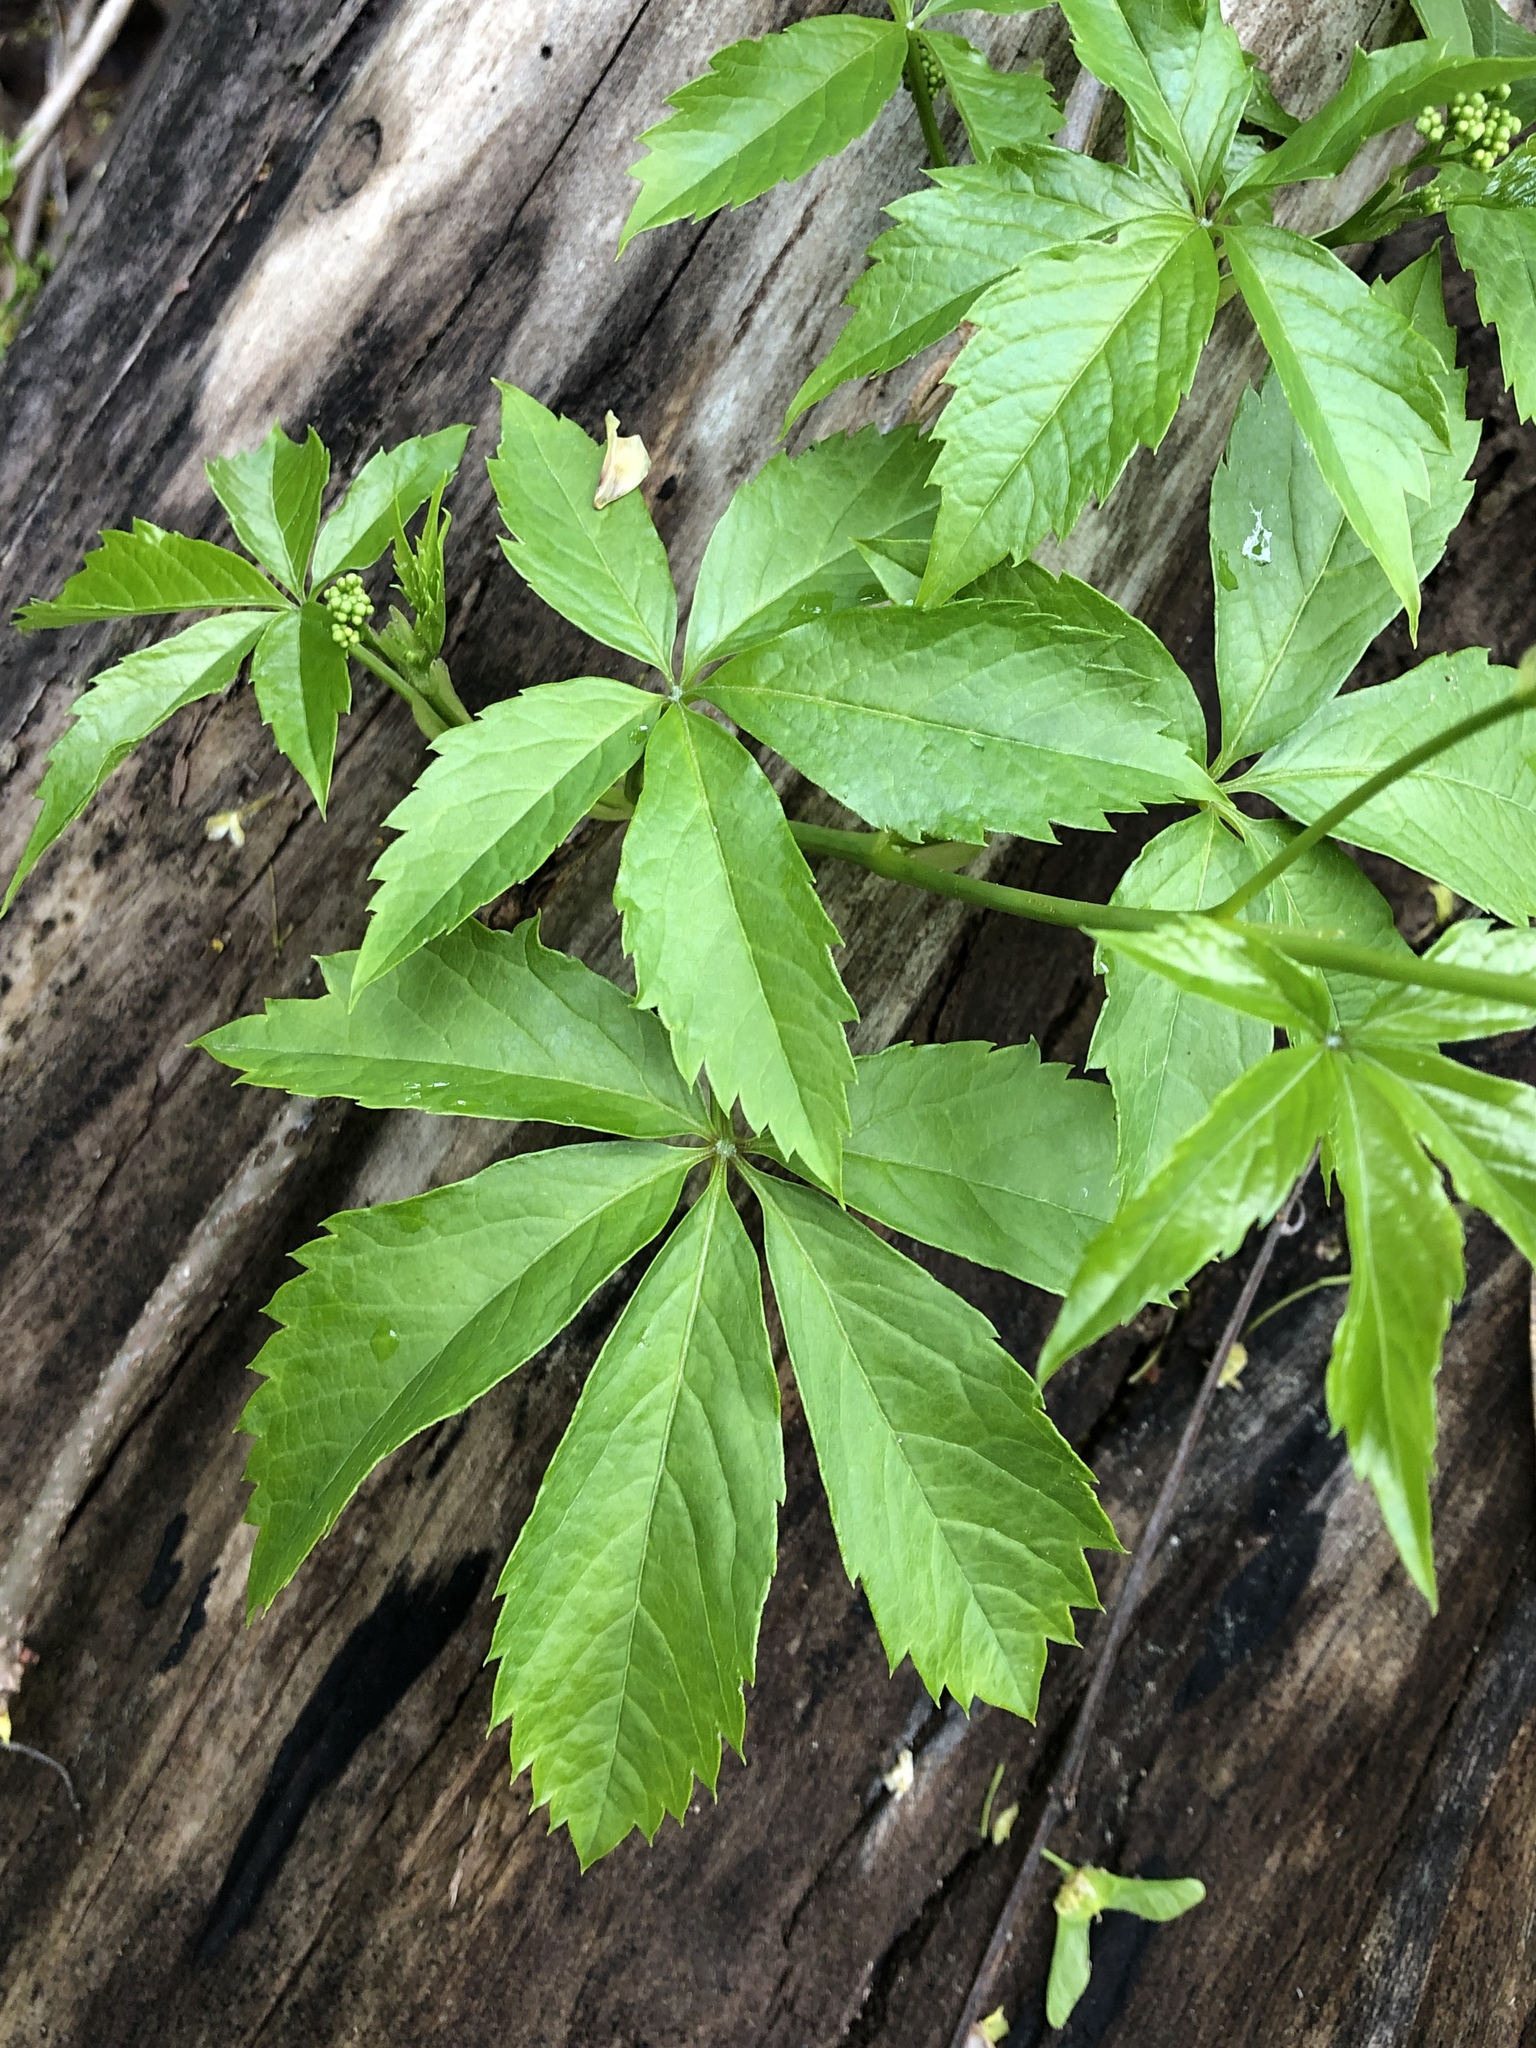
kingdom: Plantae
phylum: Tracheophyta
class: Magnoliopsida
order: Vitales
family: Vitaceae
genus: Parthenocissus
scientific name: Parthenocissus quinquefolia
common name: Virginia-creeper
